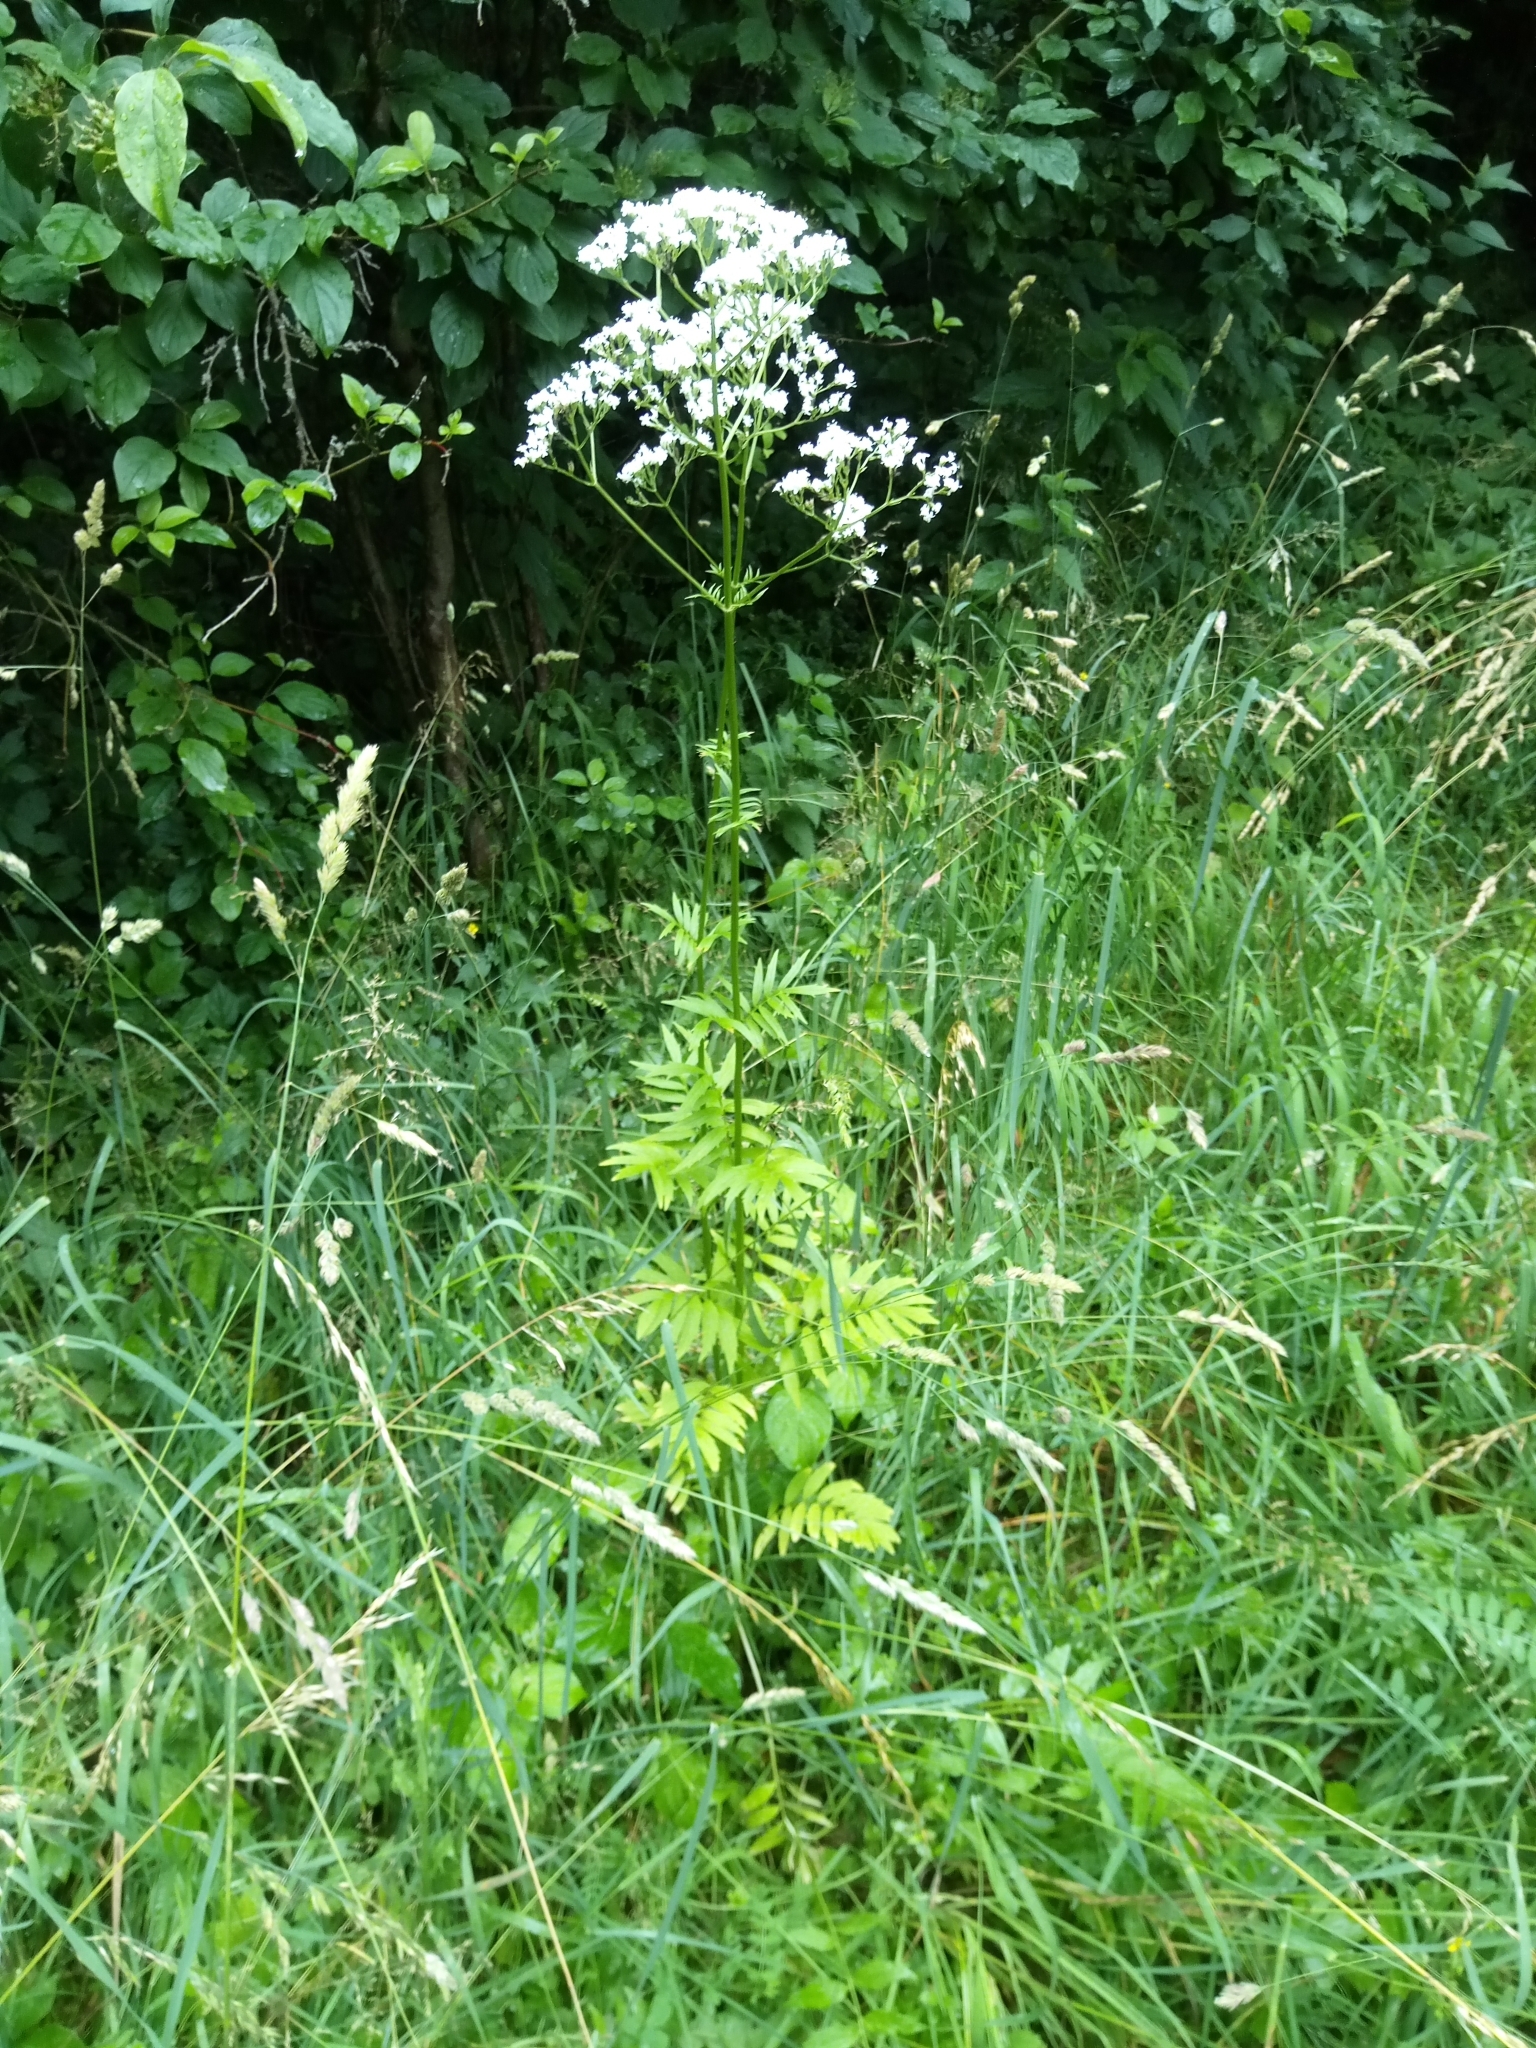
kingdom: Plantae
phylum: Tracheophyta
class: Magnoliopsida
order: Dipsacales
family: Caprifoliaceae
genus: Valeriana
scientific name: Valeriana officinalis
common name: Common valerian
